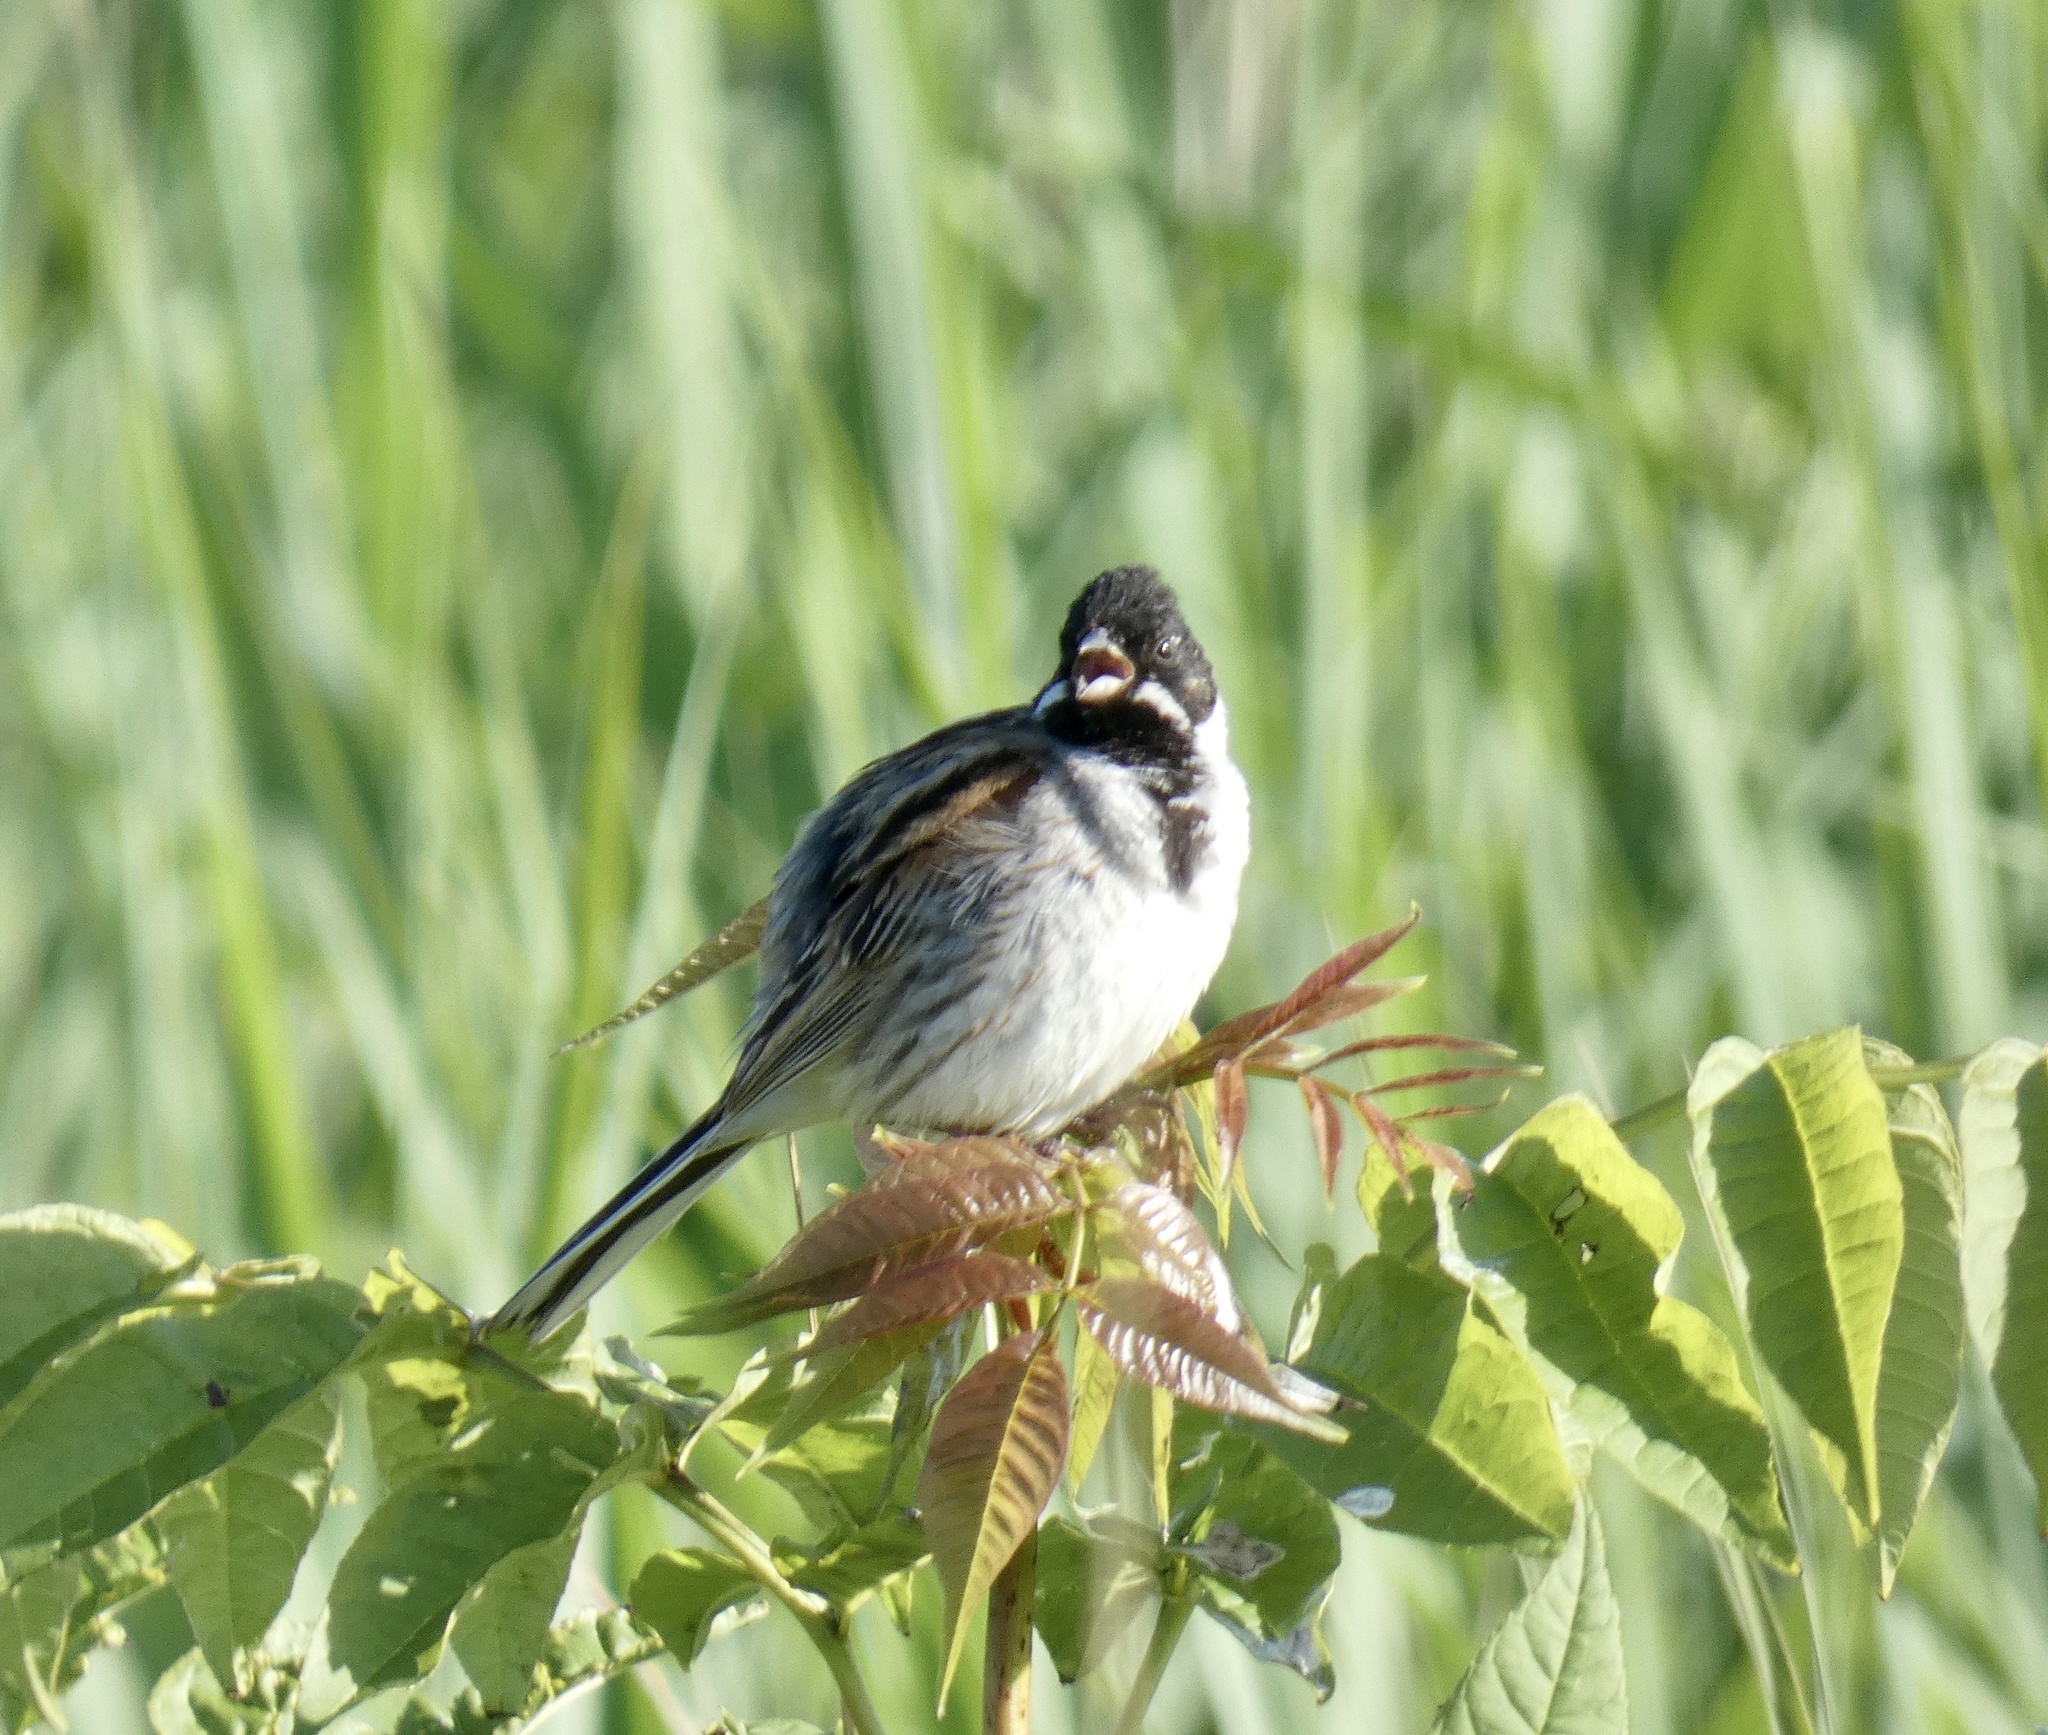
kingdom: Animalia
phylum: Chordata
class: Aves
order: Passeriformes
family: Emberizidae
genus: Emberiza
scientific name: Emberiza schoeniclus
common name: Reed bunting
